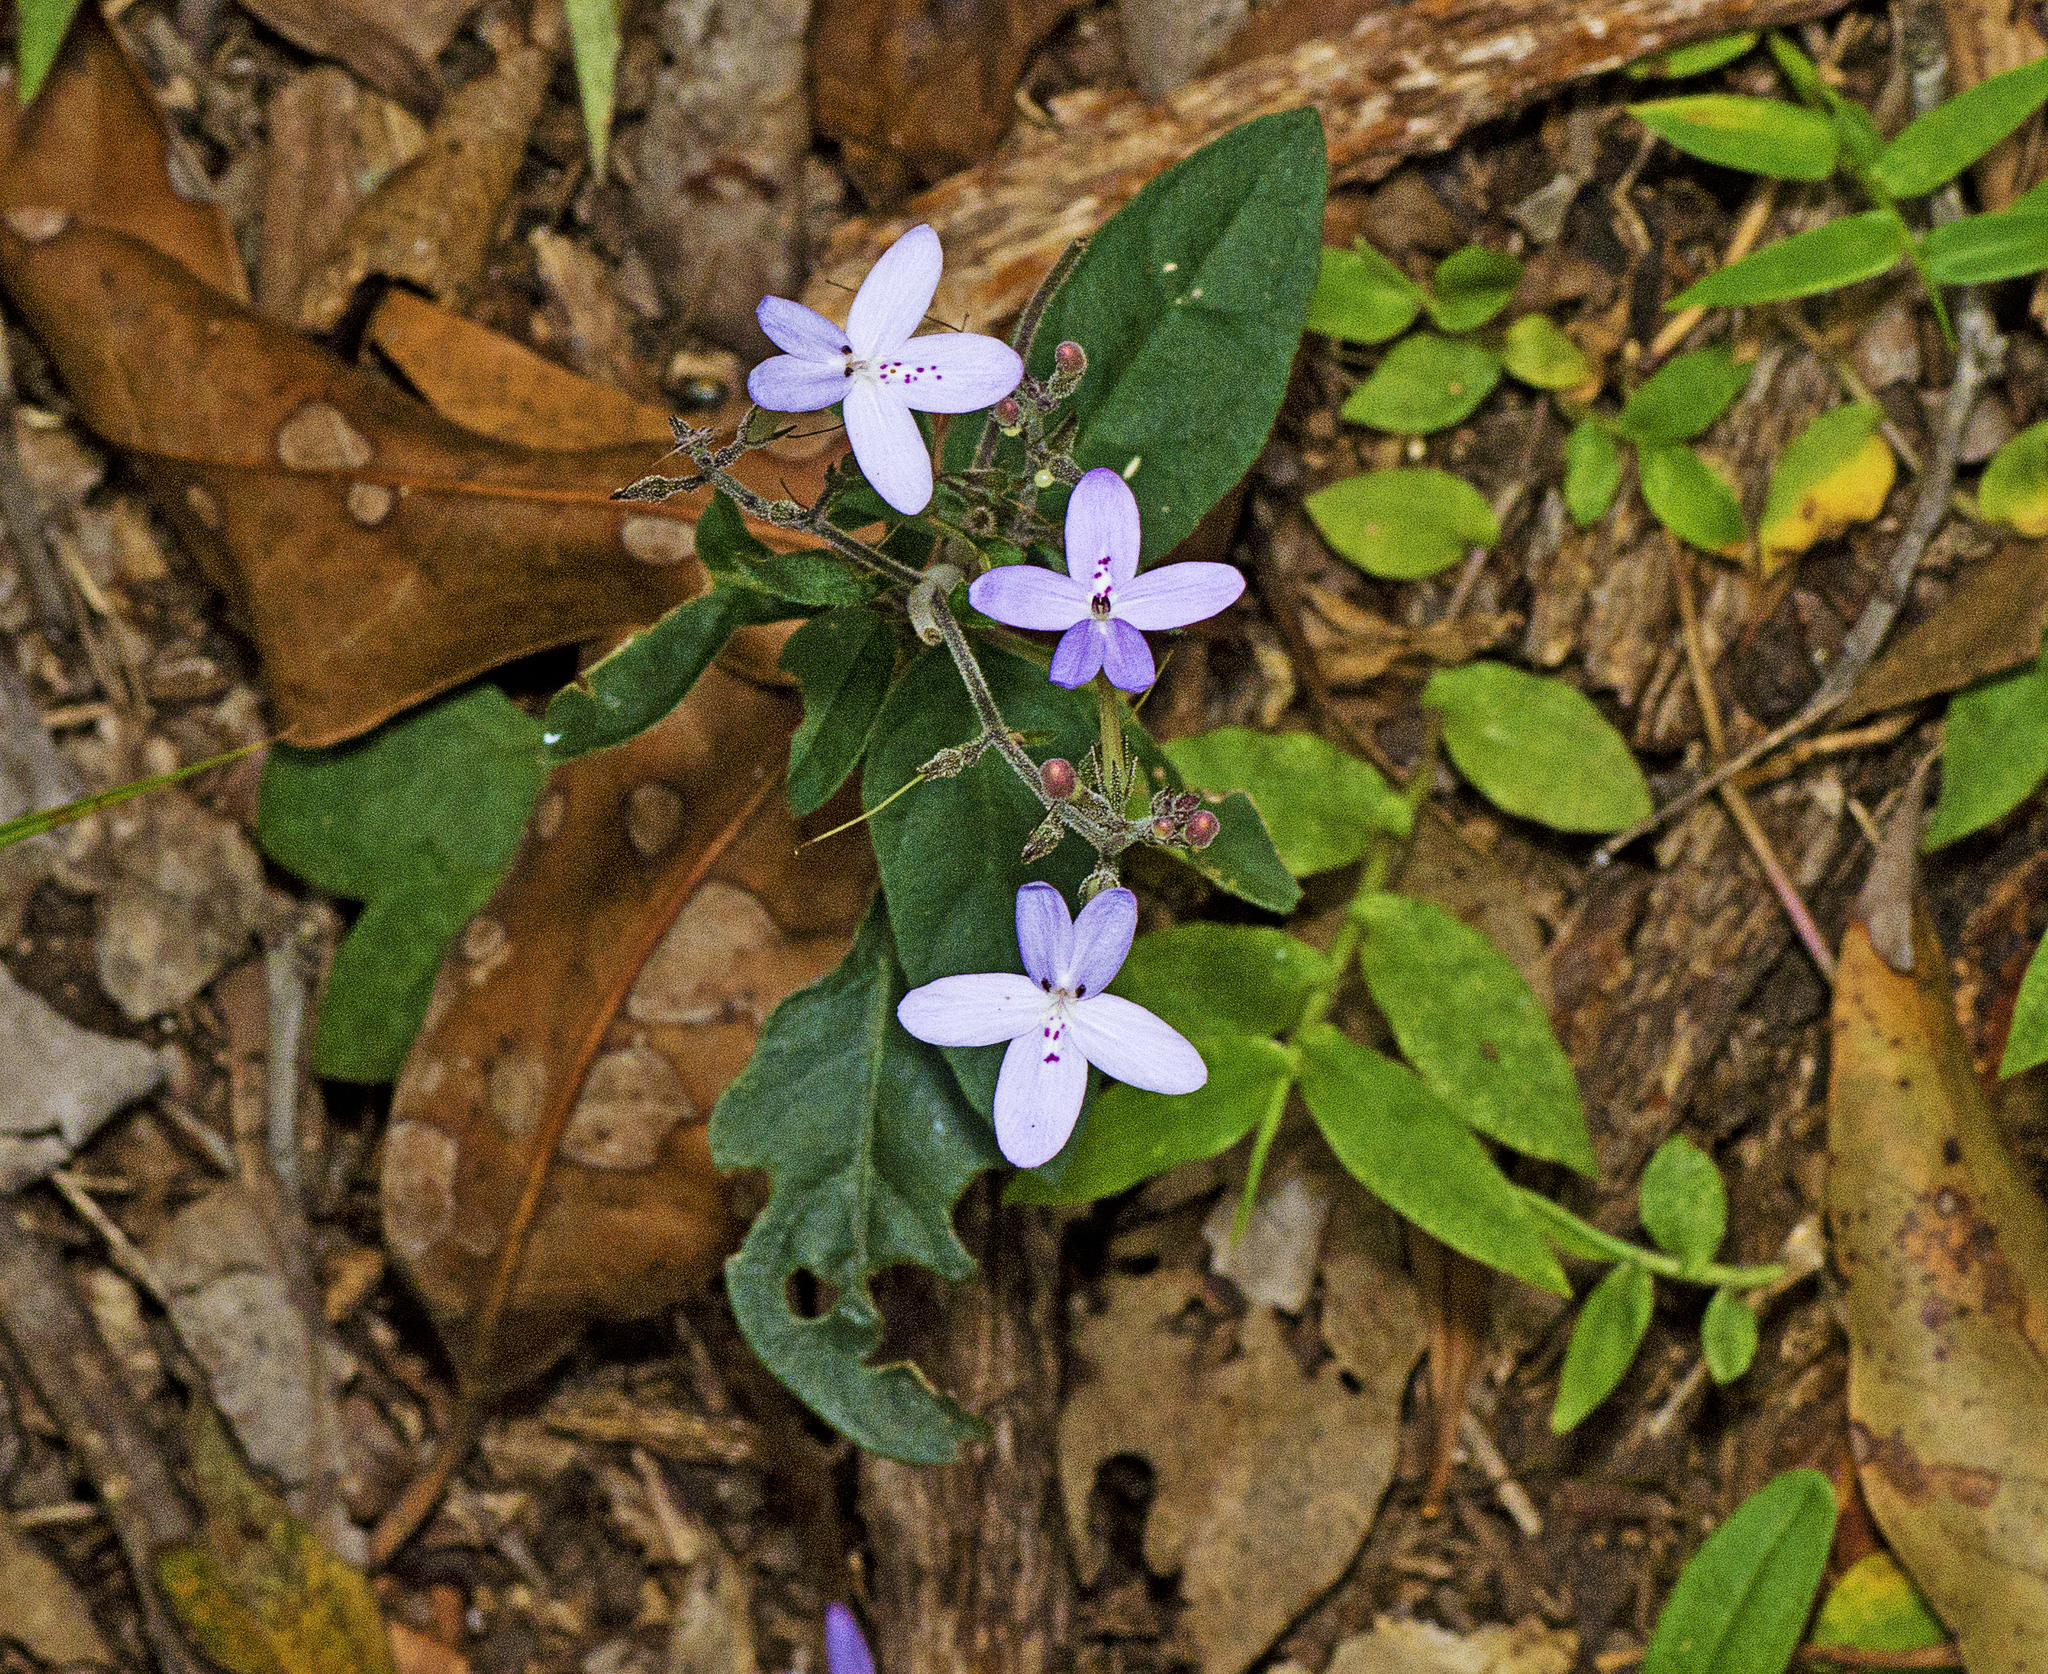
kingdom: Plantae
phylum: Tracheophyta
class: Magnoliopsida
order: Lamiales
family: Acanthaceae
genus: Pseuderanthemum
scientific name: Pseuderanthemum variabile
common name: Night and afternoon
